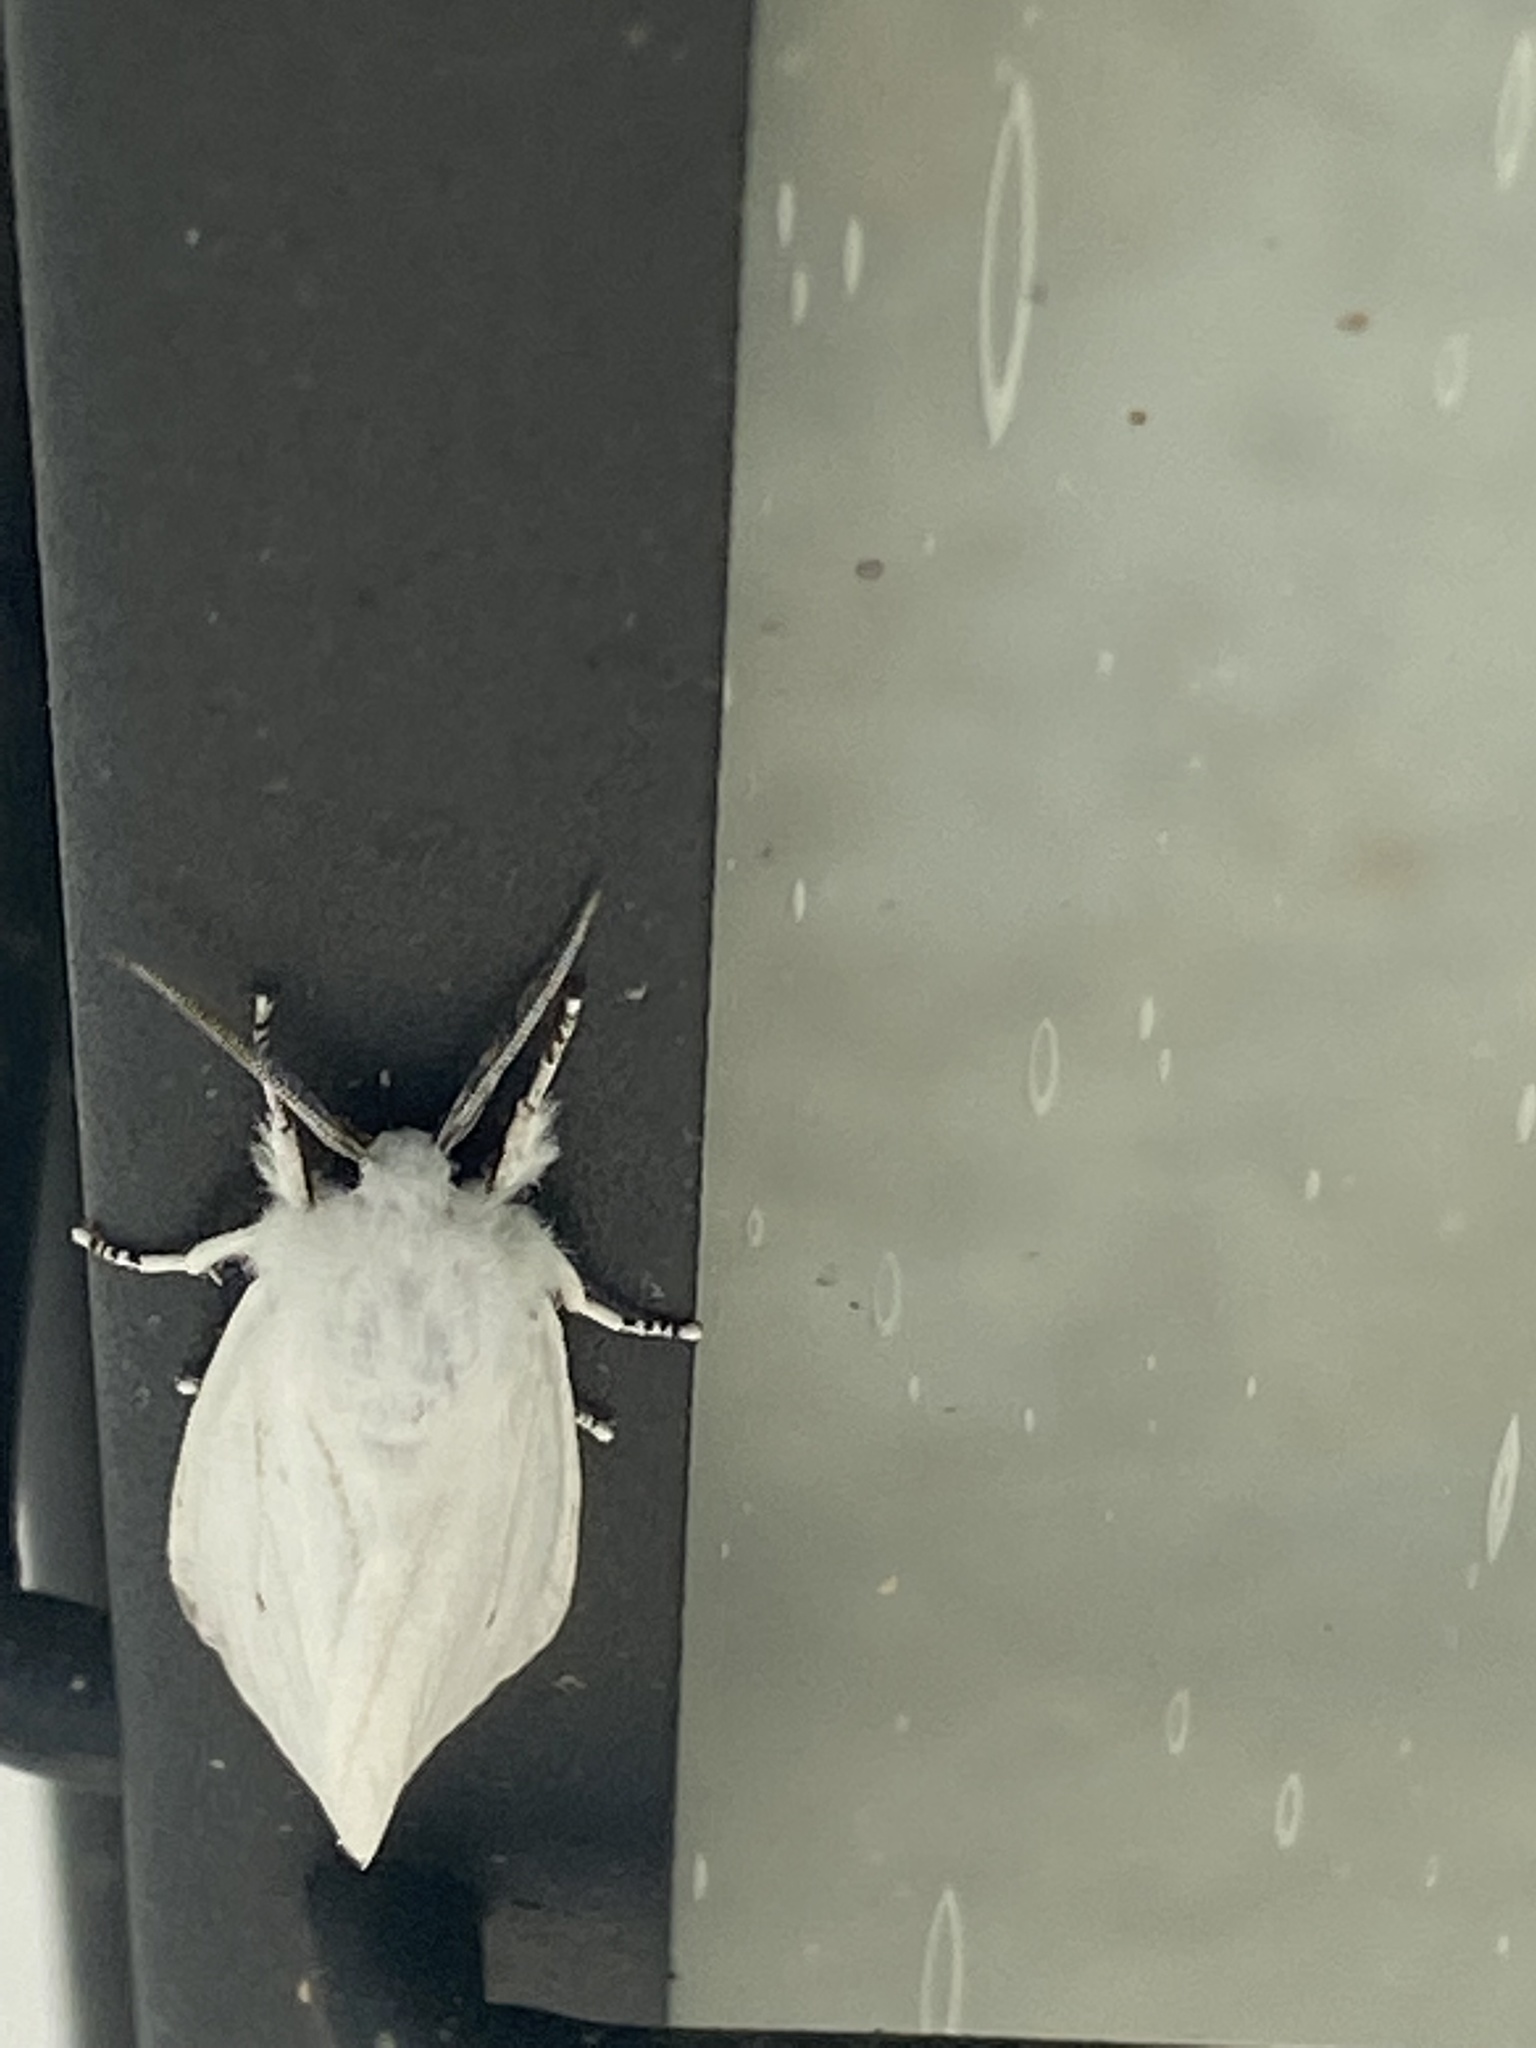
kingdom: Animalia
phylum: Arthropoda
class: Insecta
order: Lepidoptera
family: Erebidae
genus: Spilosoma
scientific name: Spilosoma virginica
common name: Virginia tiger moth
